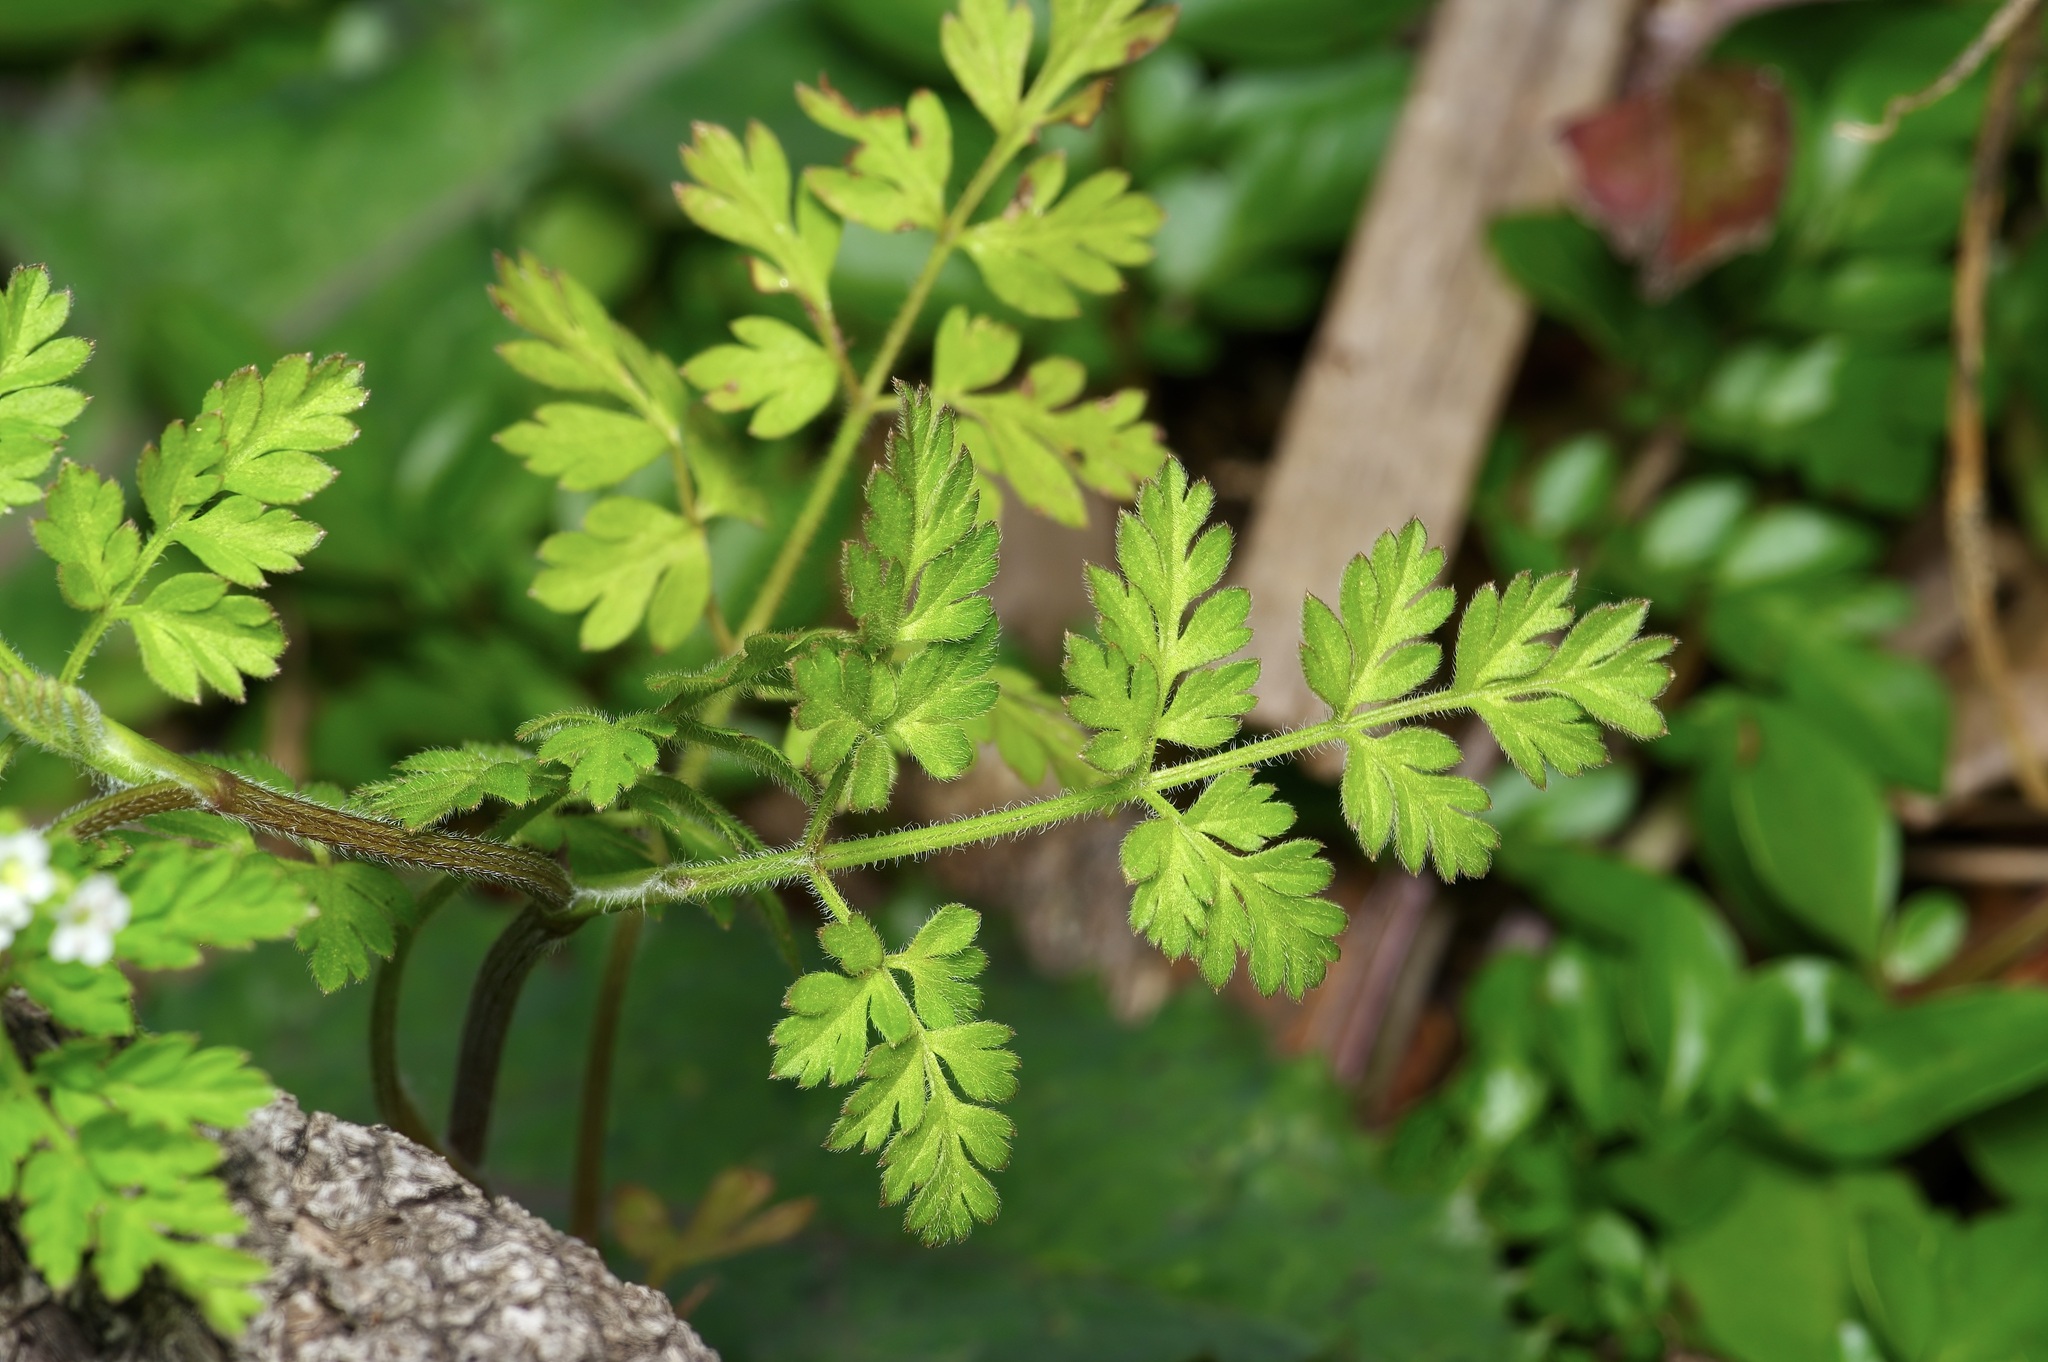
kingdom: Plantae
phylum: Tracheophyta
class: Magnoliopsida
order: Apiales
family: Apiaceae
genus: Chaerophyllum
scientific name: Chaerophyllum tainturieri
